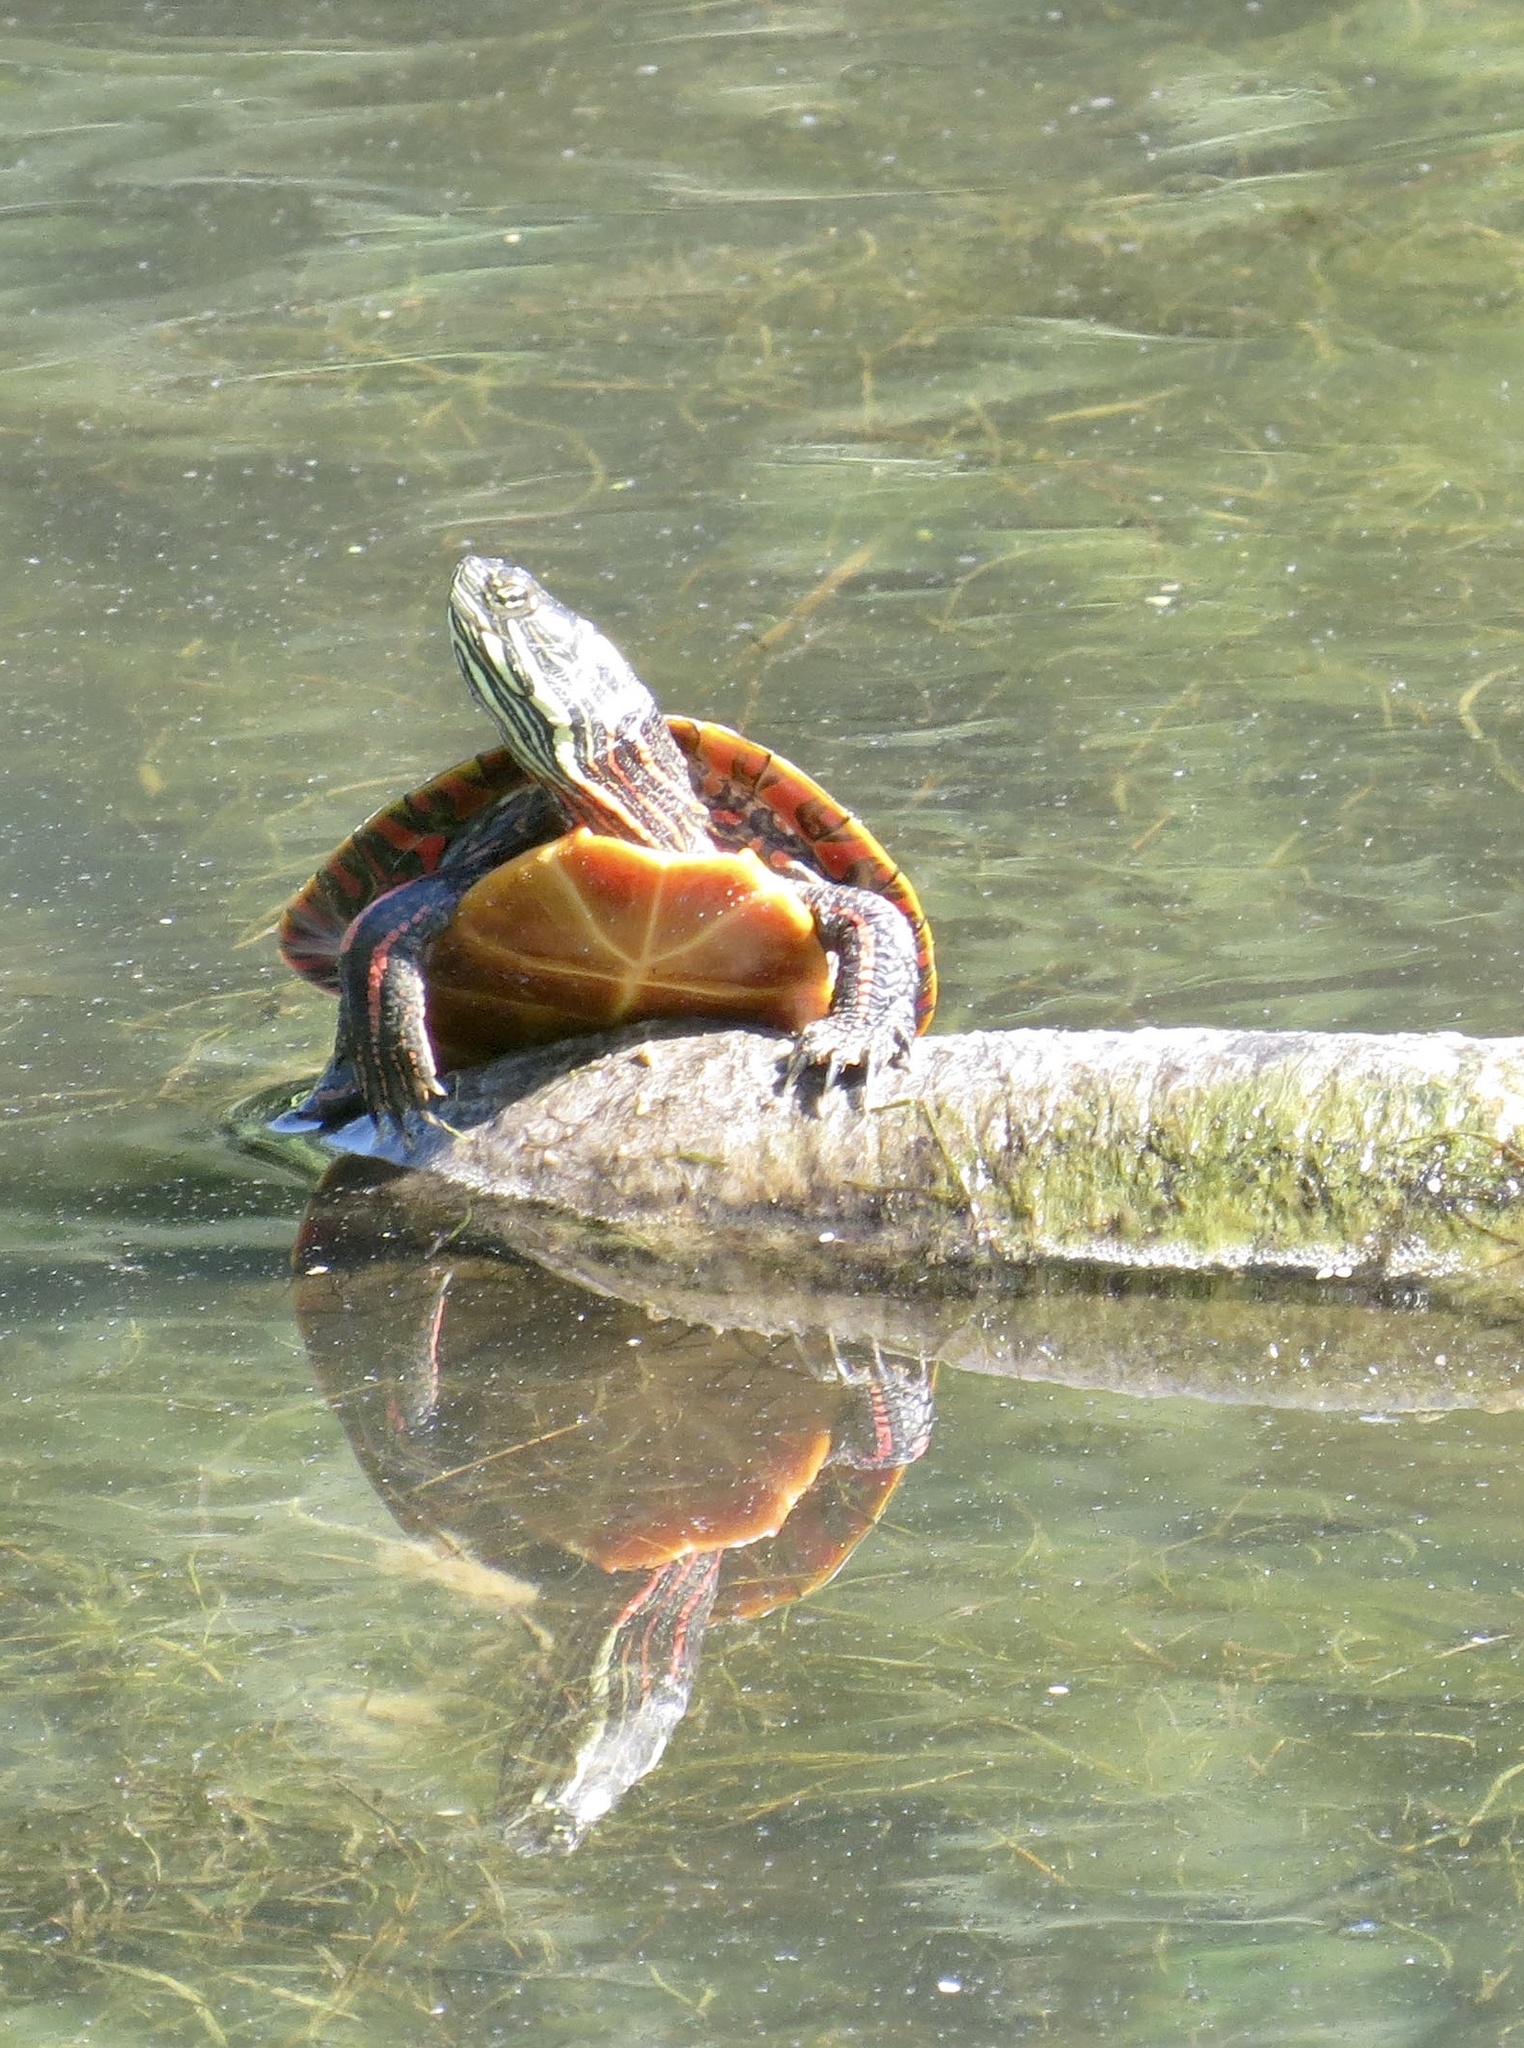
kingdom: Animalia
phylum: Chordata
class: Testudines
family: Emydidae
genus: Chrysemys
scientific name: Chrysemys picta
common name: Painted turtle
